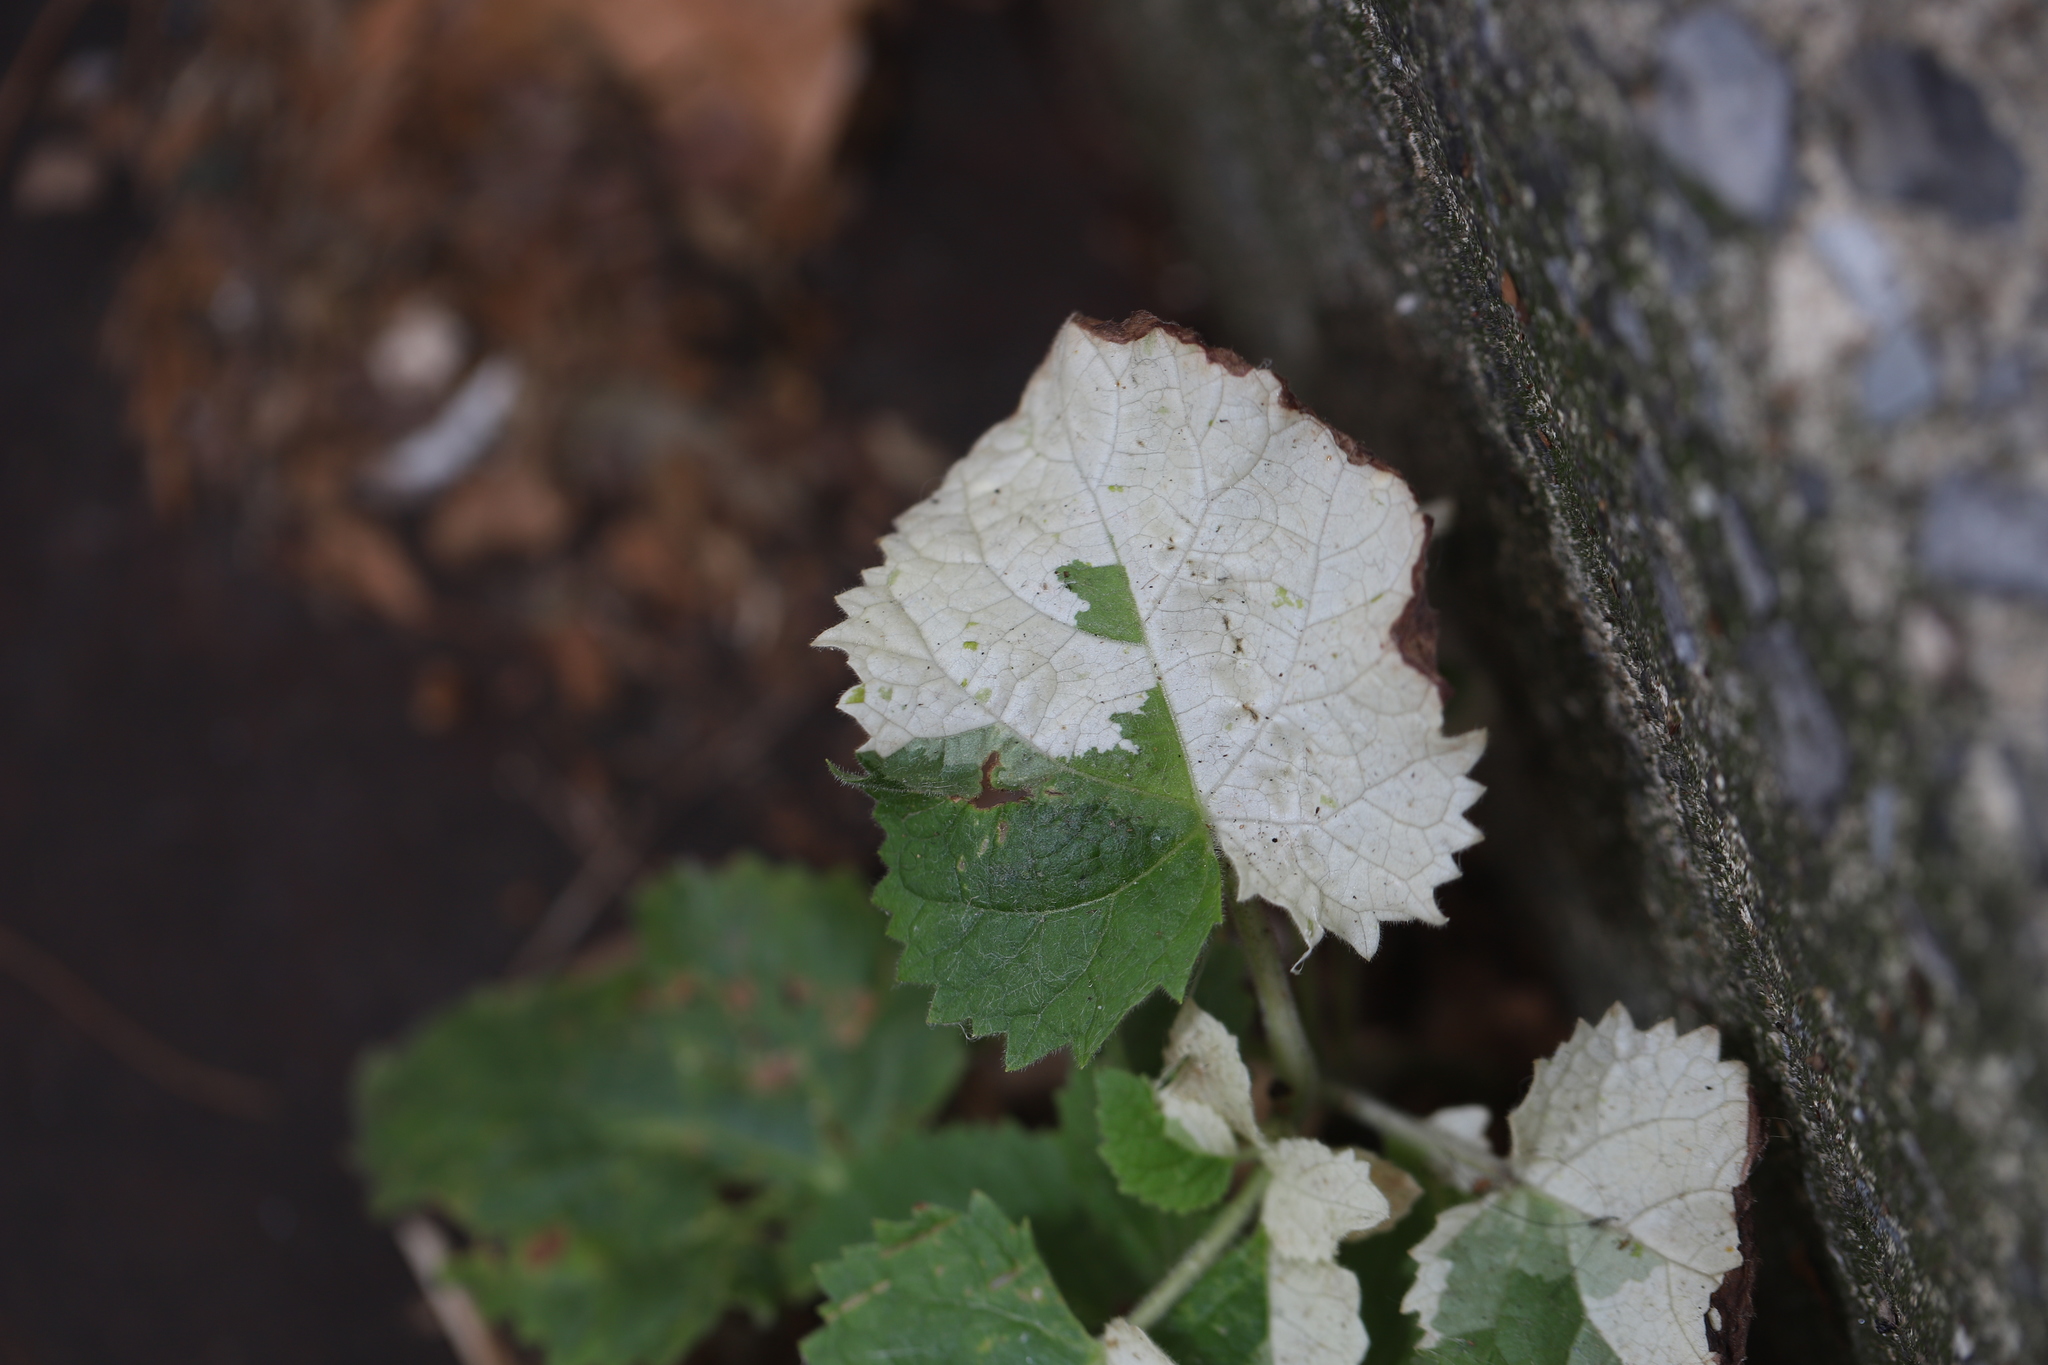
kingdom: Plantae
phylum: Tracheophyta
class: Magnoliopsida
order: Lamiales
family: Paulowniaceae
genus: Paulownia
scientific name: Paulownia tomentosa
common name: Foxglove-tree
